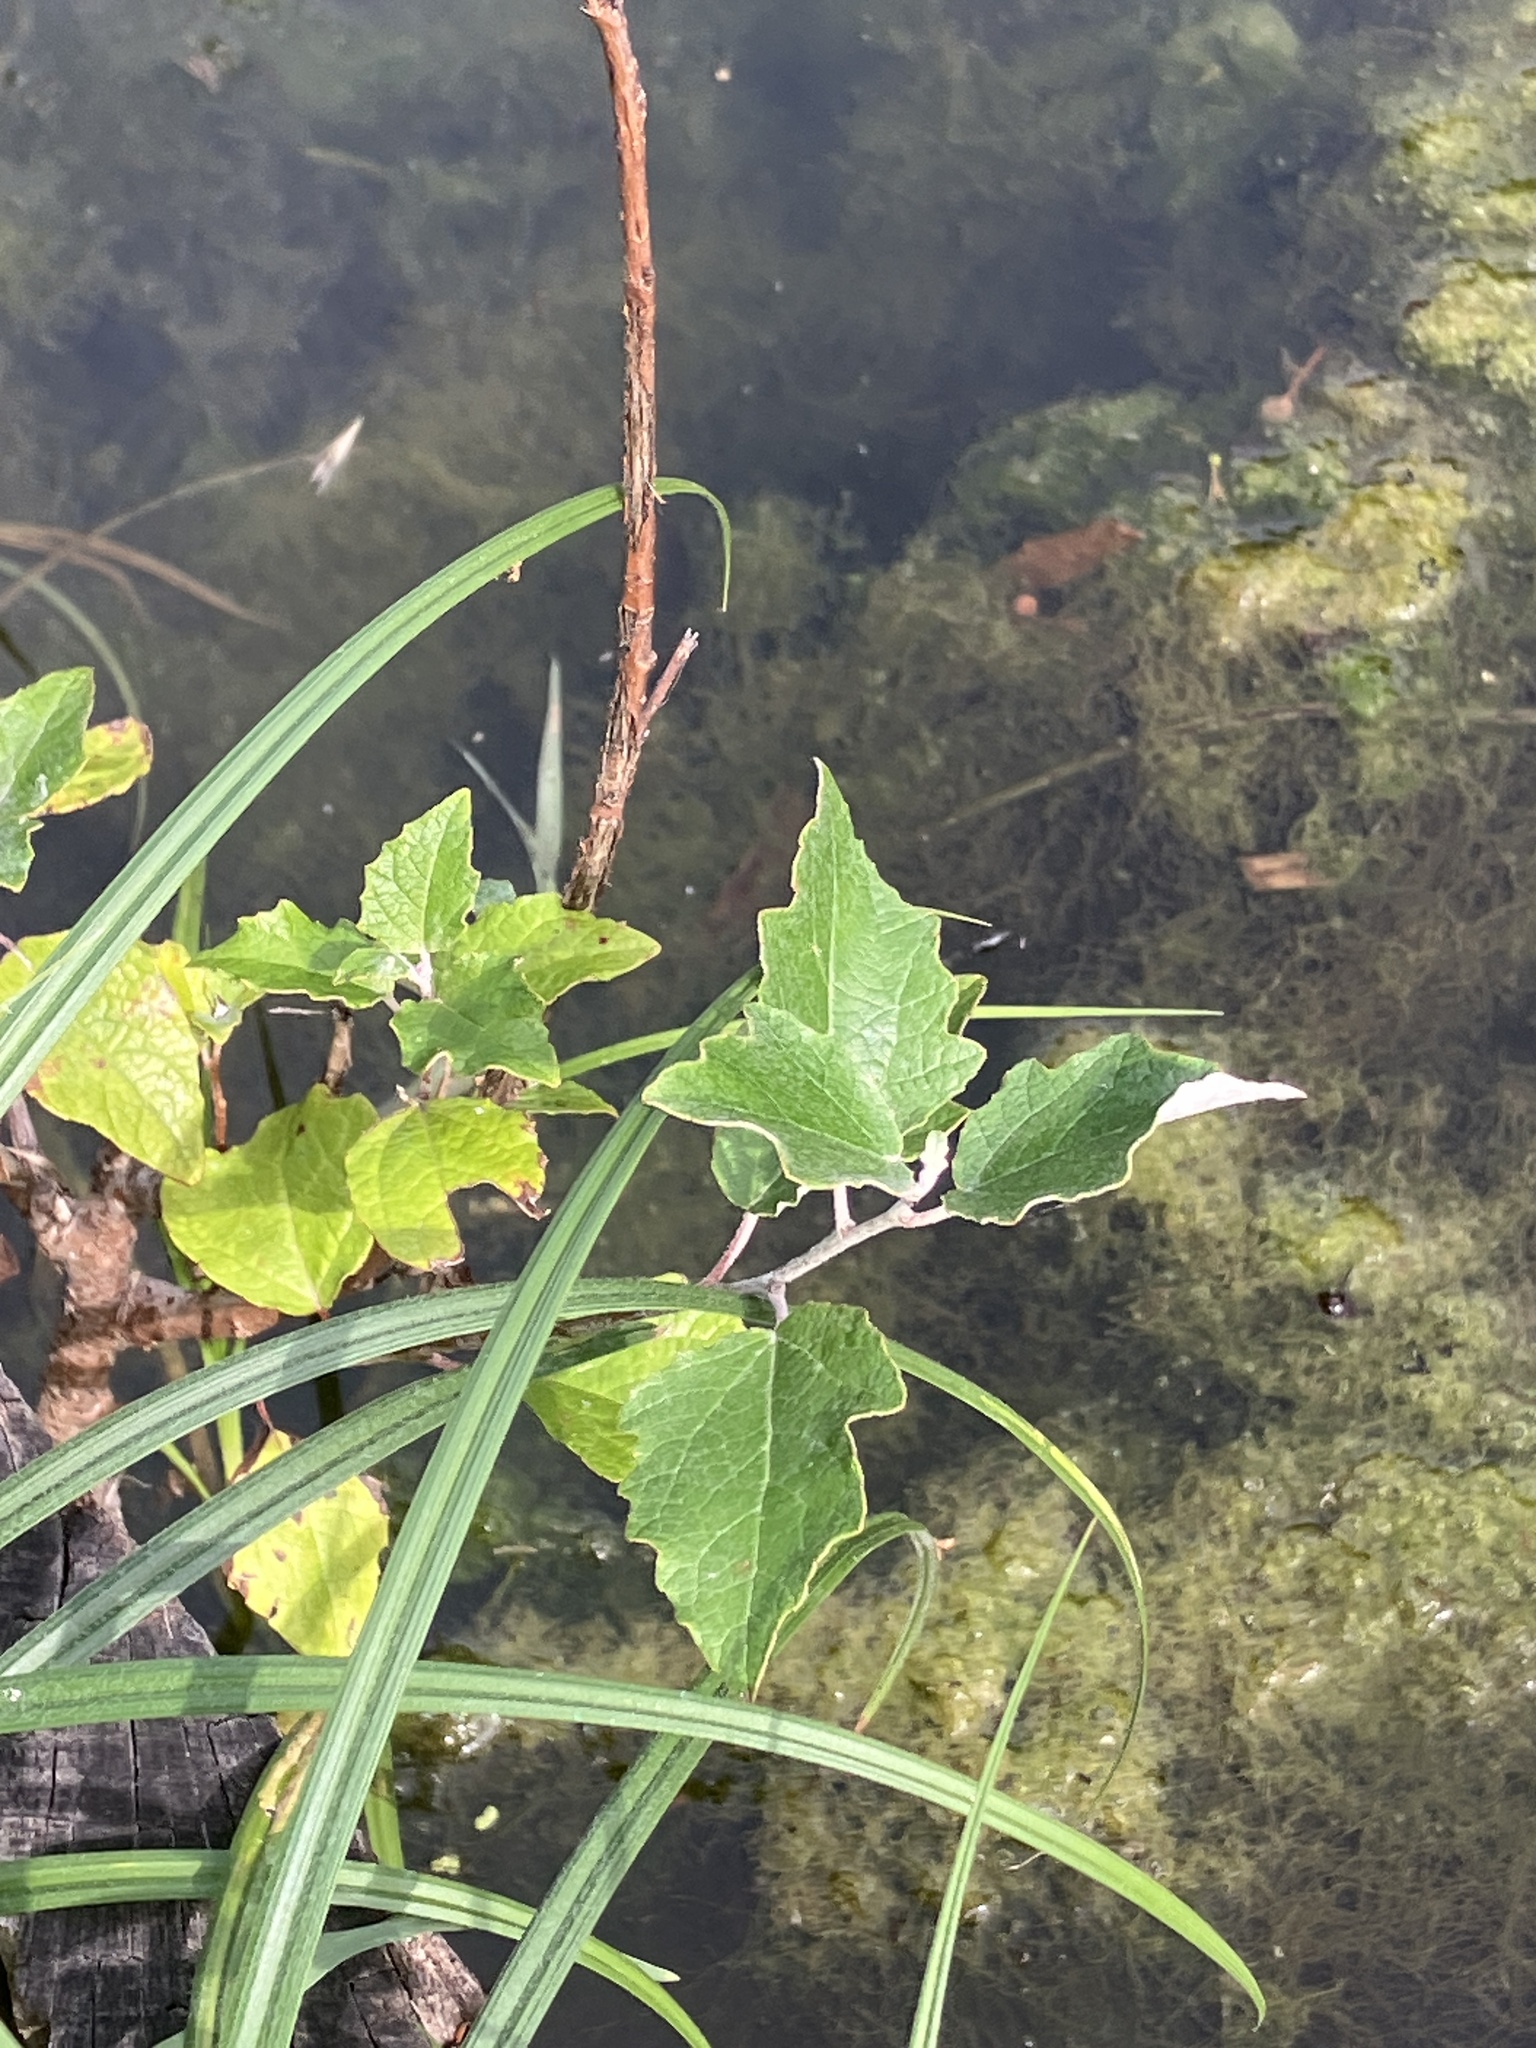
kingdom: Plantae
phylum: Tracheophyta
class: Magnoliopsida
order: Malpighiales
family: Salicaceae
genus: Populus
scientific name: Populus alba
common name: White poplar
